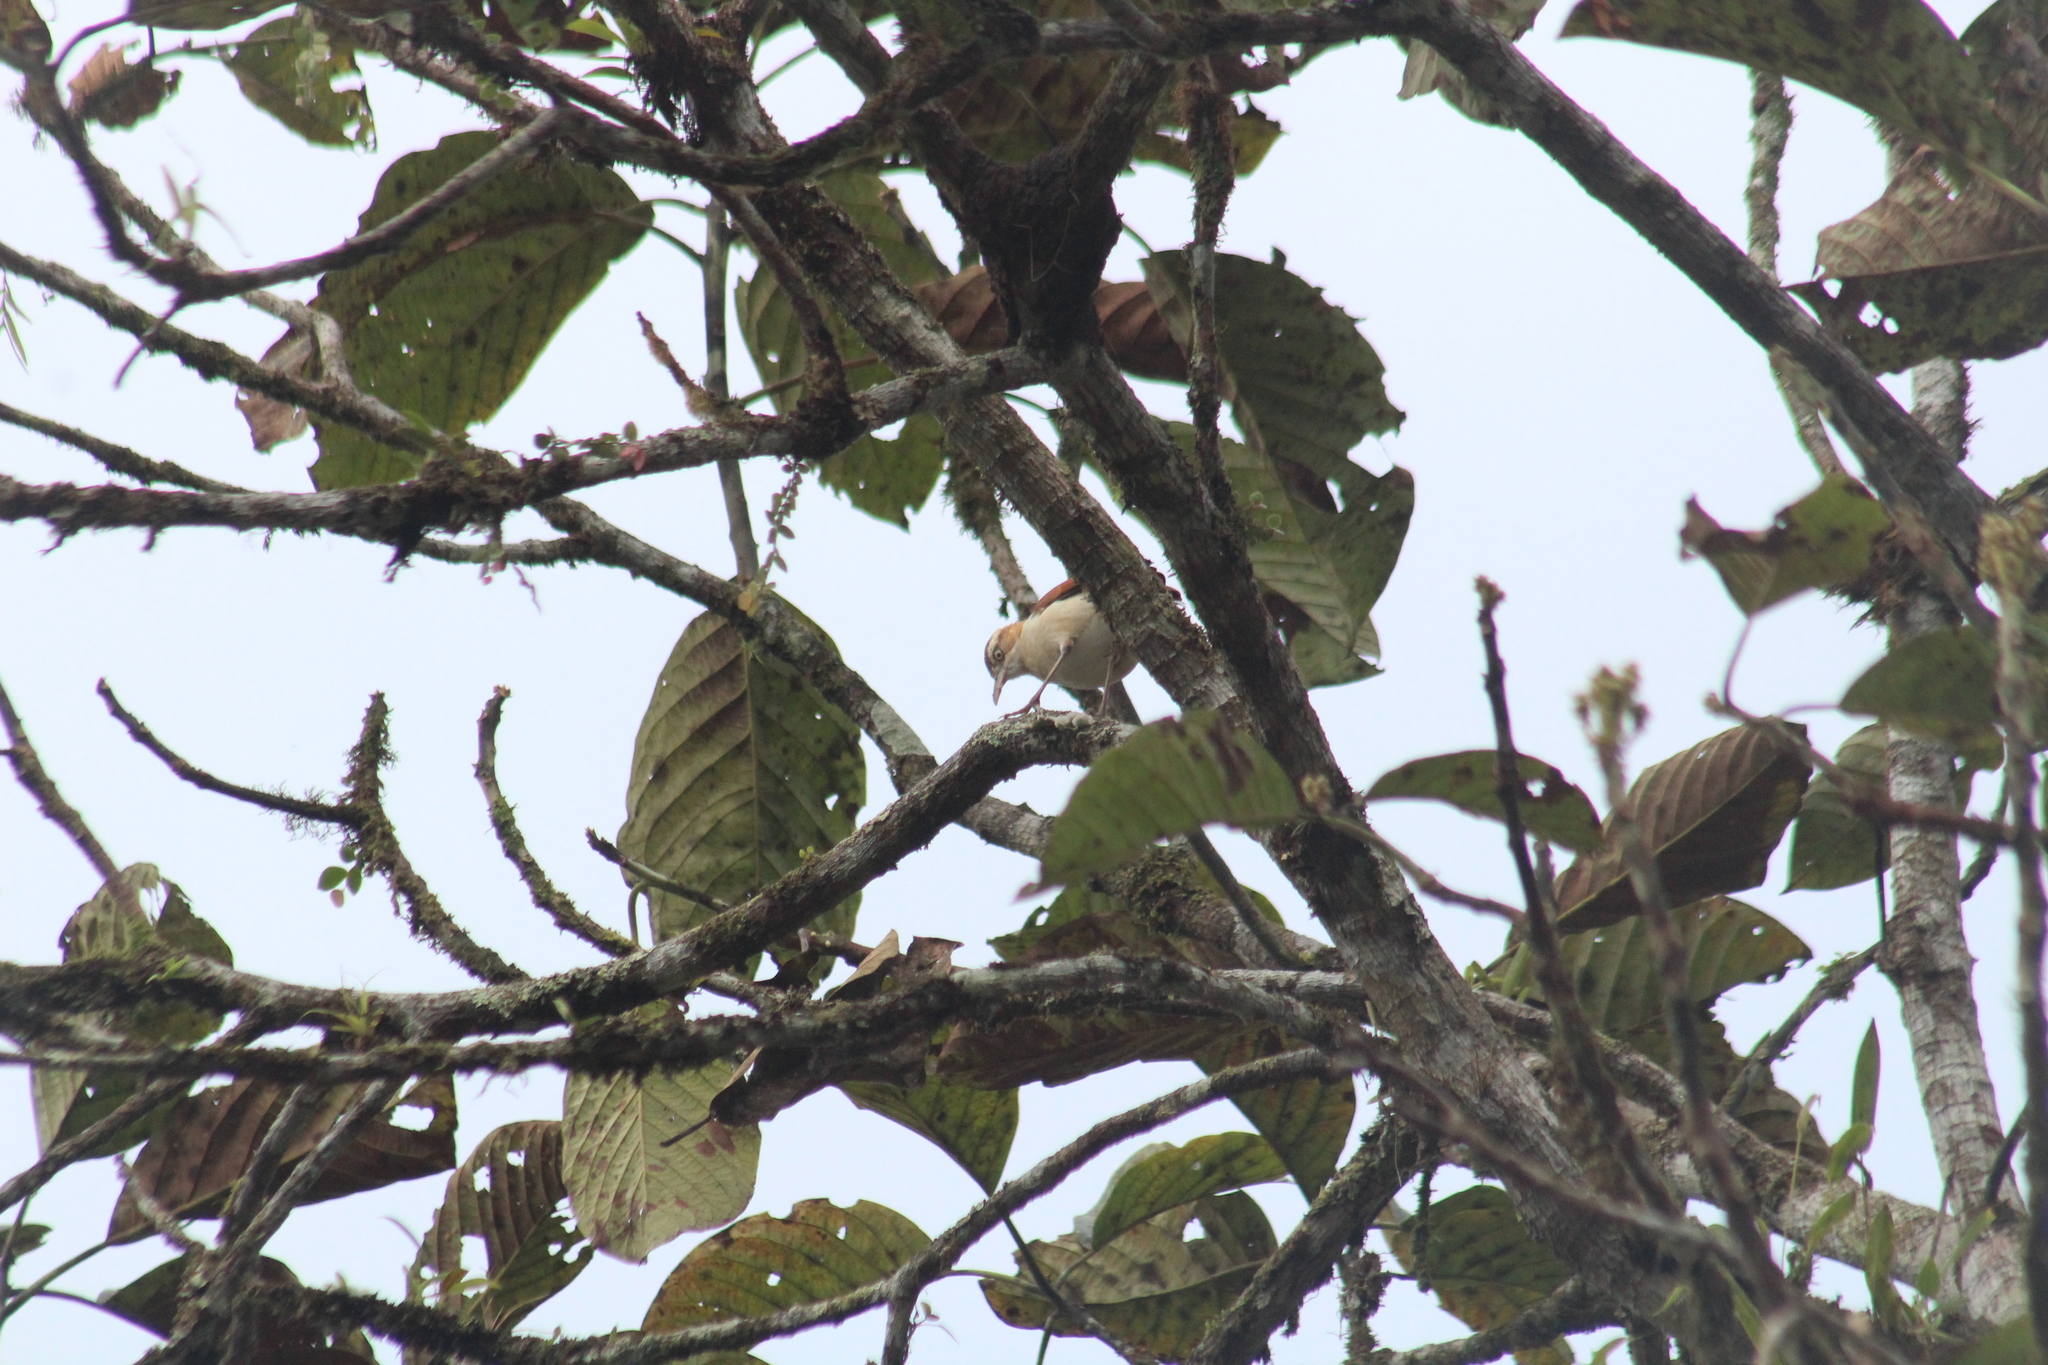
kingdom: Animalia
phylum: Chordata
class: Aves
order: Passeriformes
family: Furnariidae
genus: Furnarius
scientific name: Furnarius leucopus
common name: Pale-legged hornero
